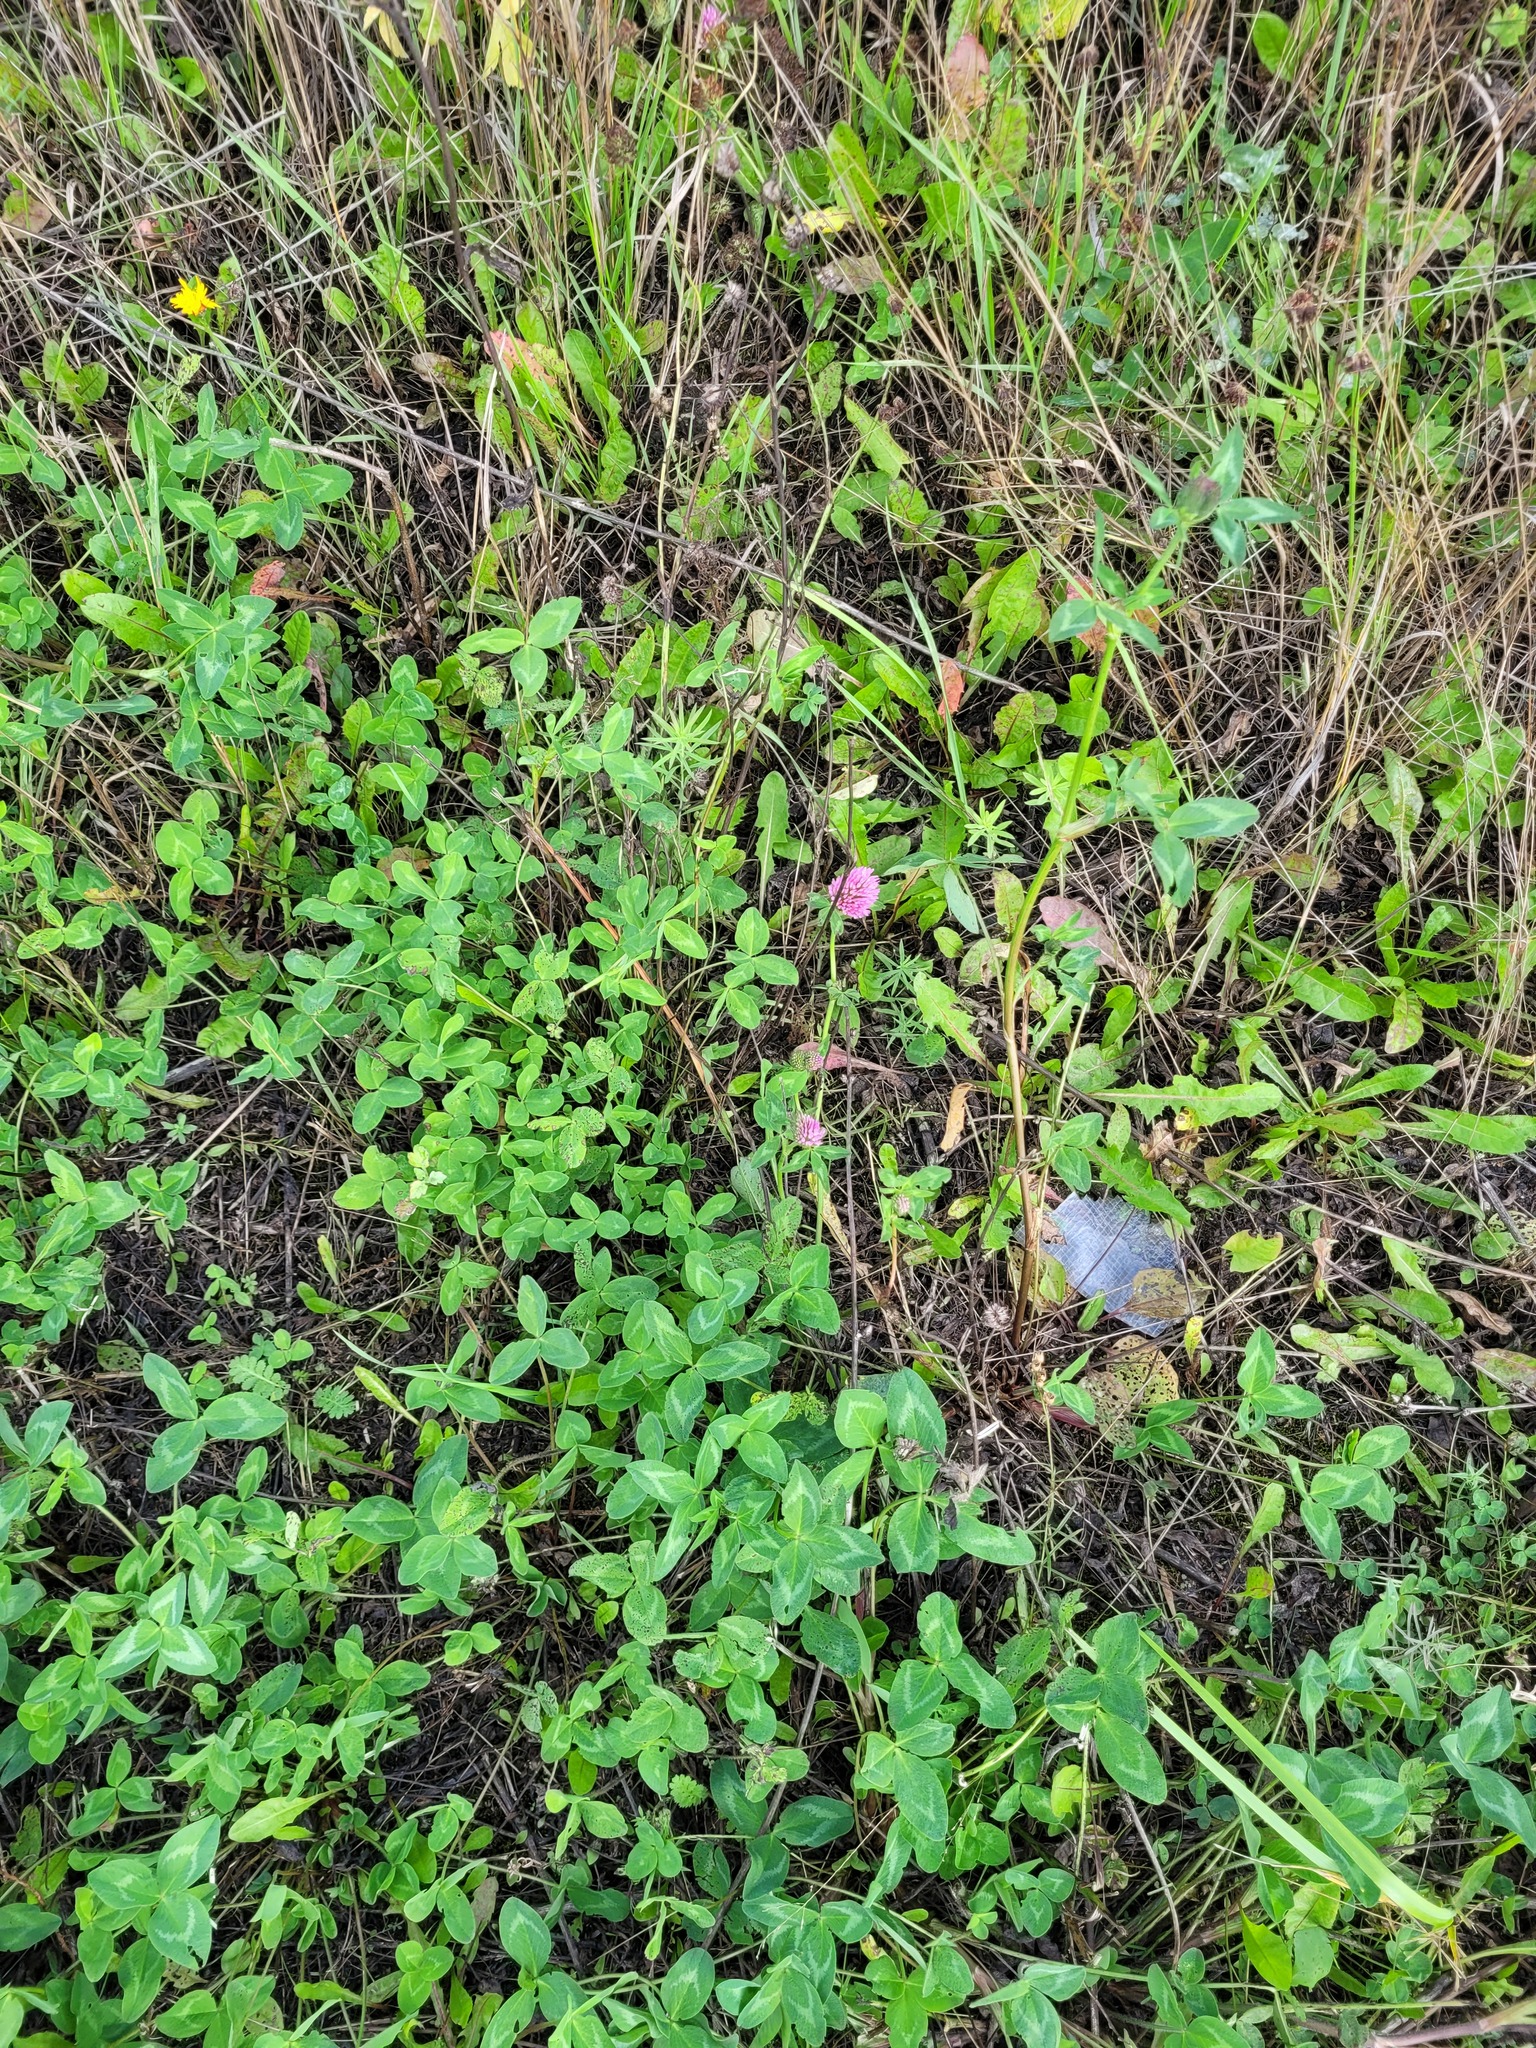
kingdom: Plantae
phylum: Tracheophyta
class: Magnoliopsida
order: Fabales
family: Fabaceae
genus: Trifolium
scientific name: Trifolium pratense
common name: Red clover
